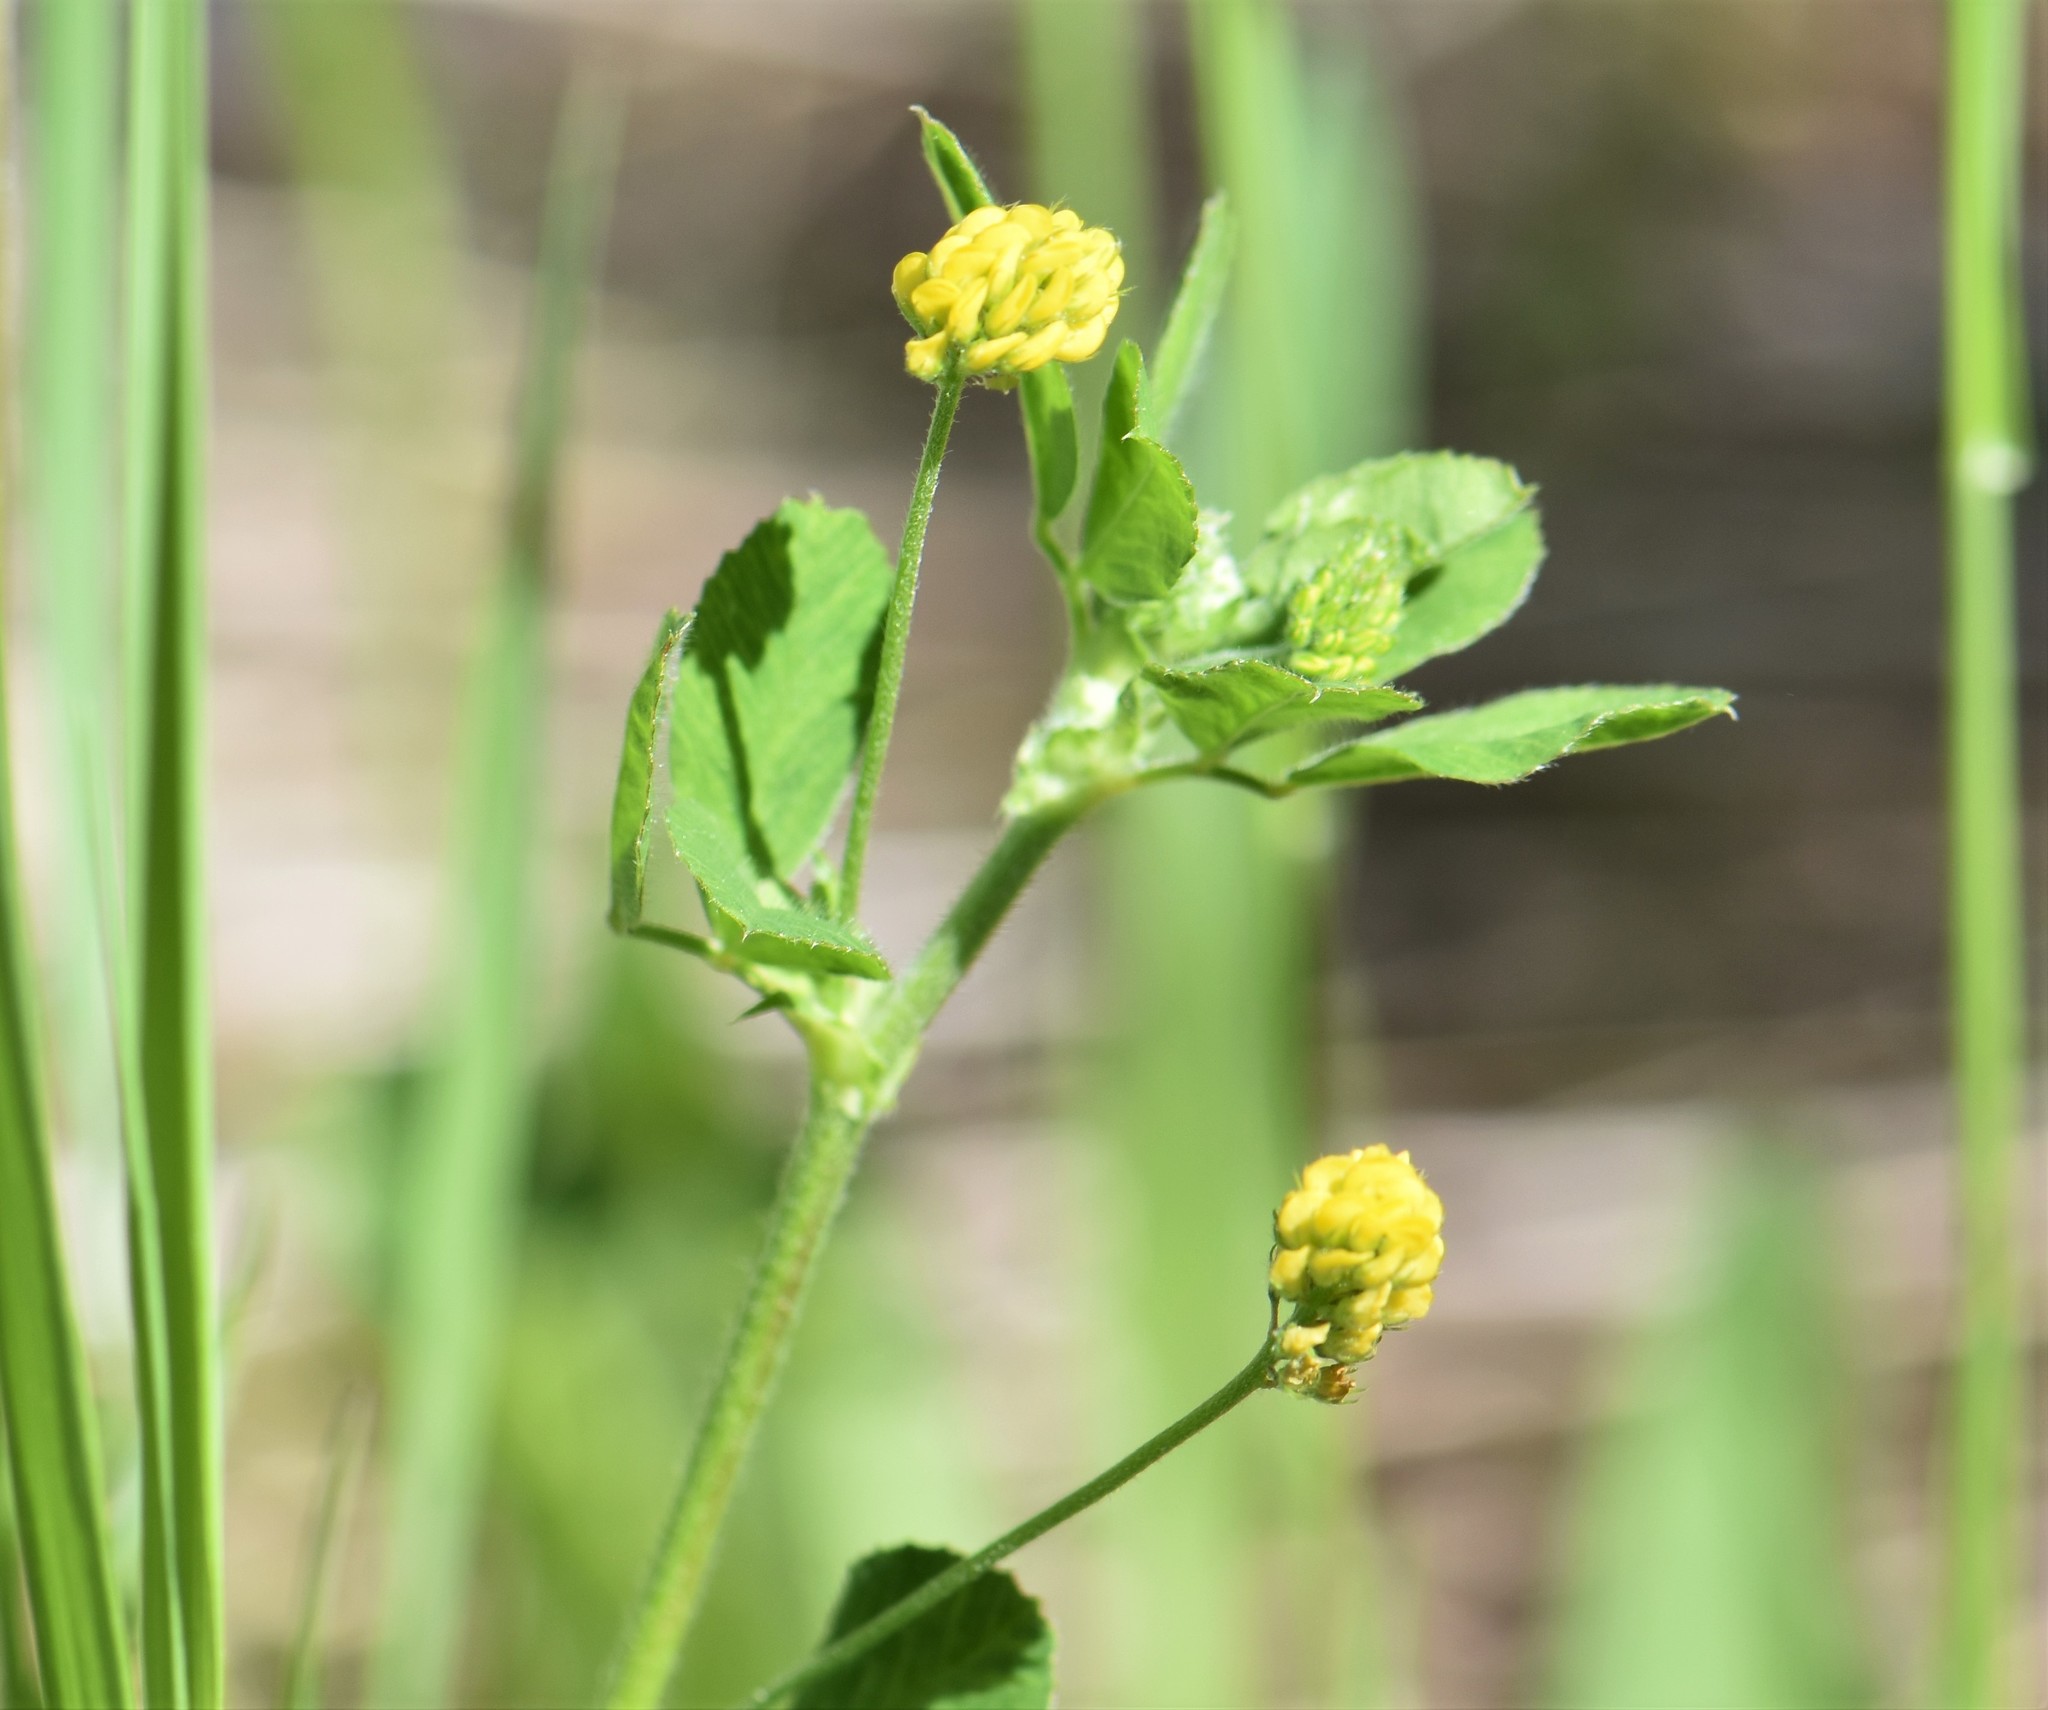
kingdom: Plantae
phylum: Tracheophyta
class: Magnoliopsida
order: Fabales
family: Fabaceae
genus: Medicago
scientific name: Medicago lupulina
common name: Black medick
